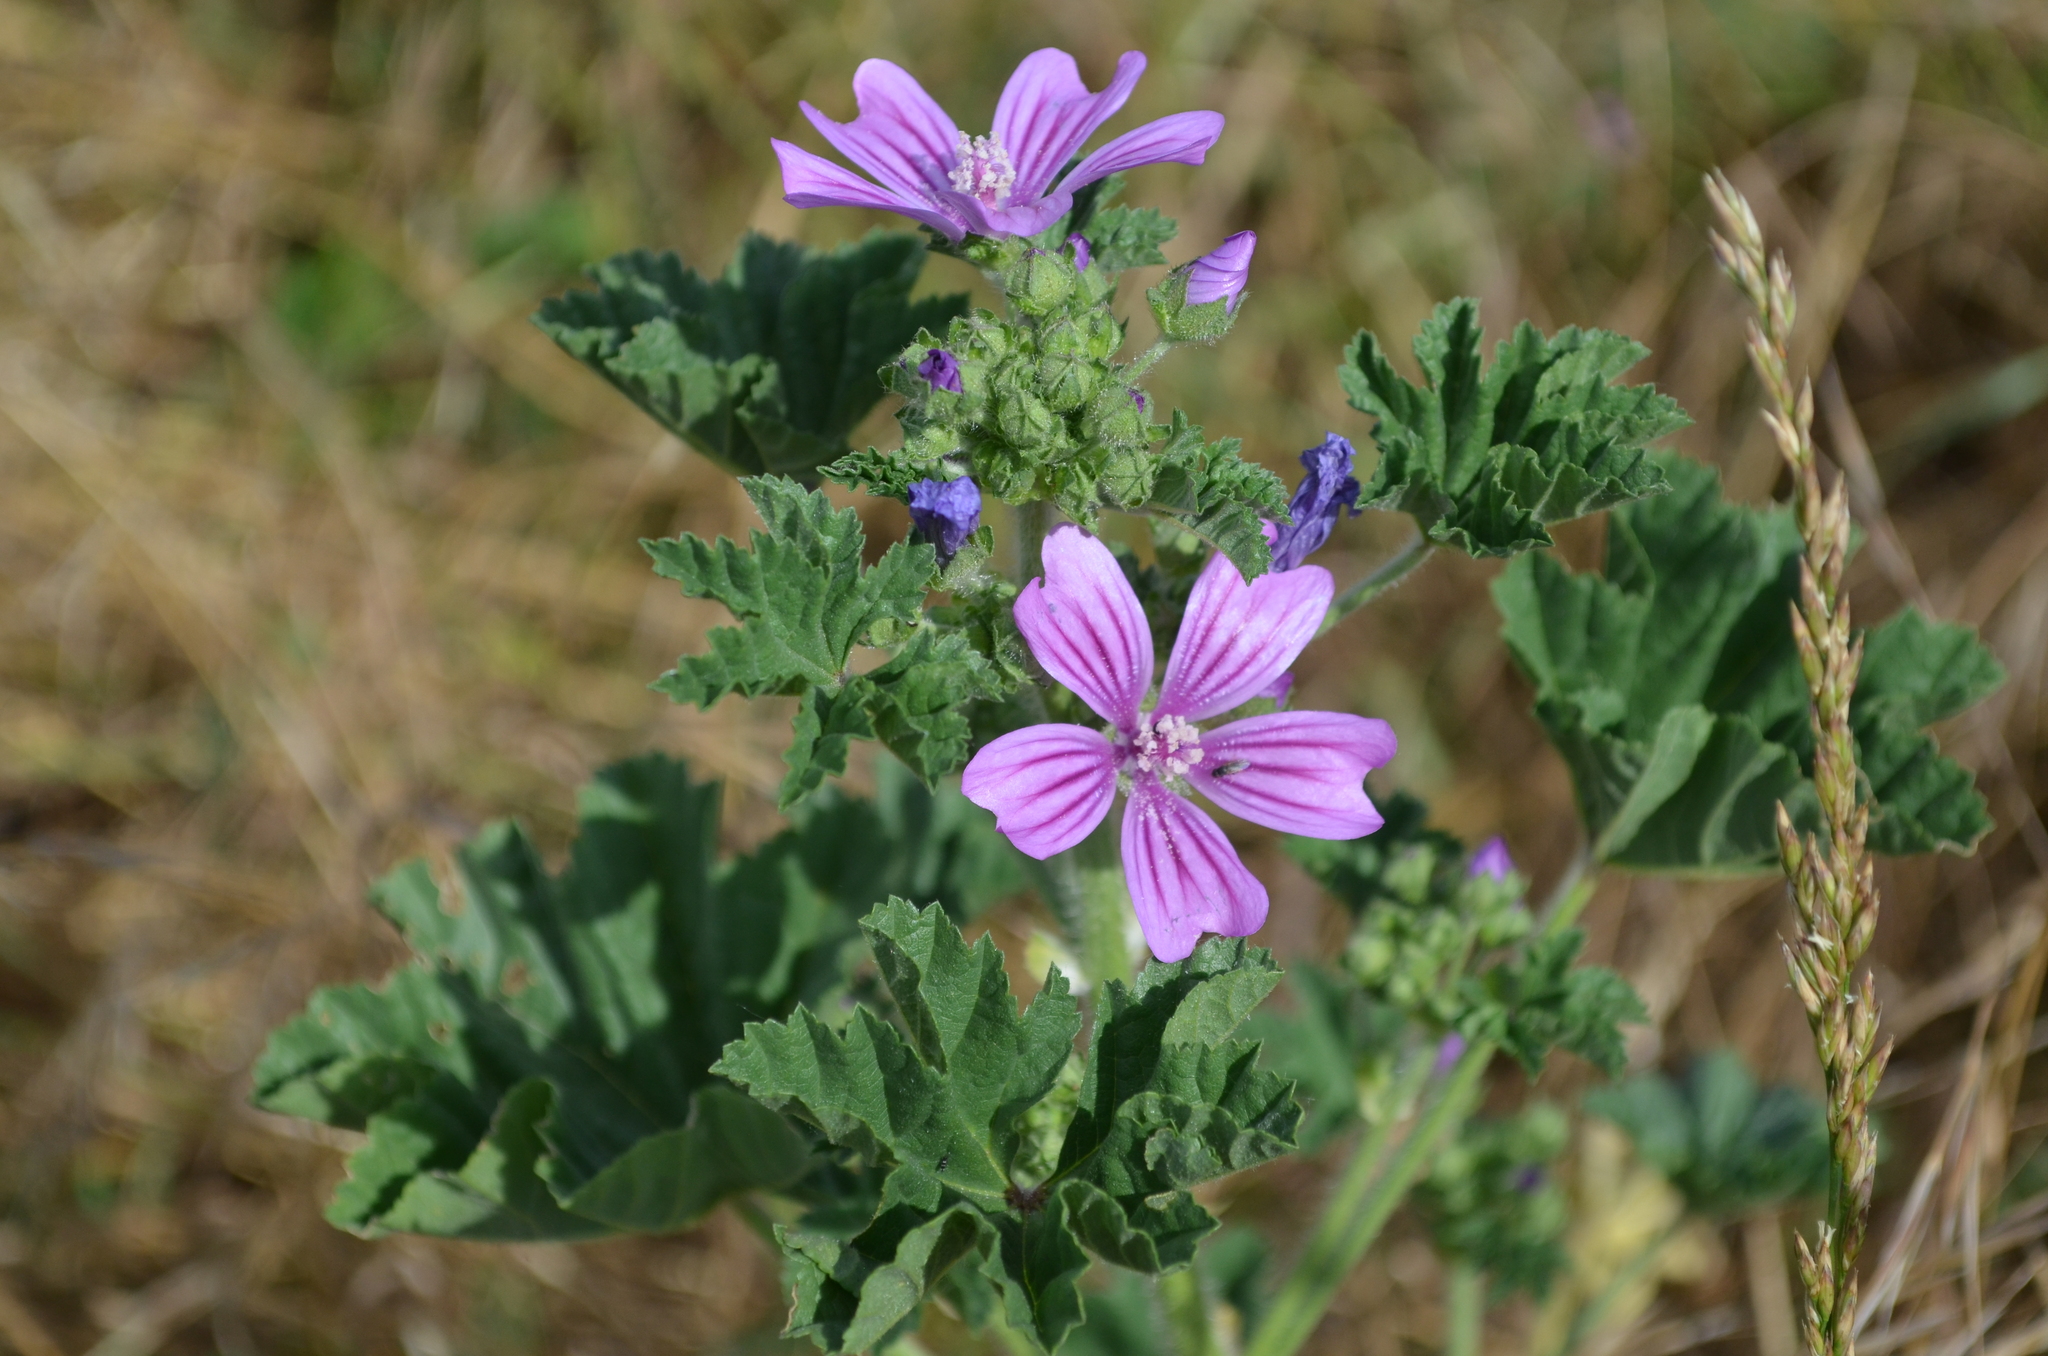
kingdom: Plantae
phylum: Tracheophyta
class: Magnoliopsida
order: Malvales
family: Malvaceae
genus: Malva
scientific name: Malva sylvestris
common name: Common mallow
